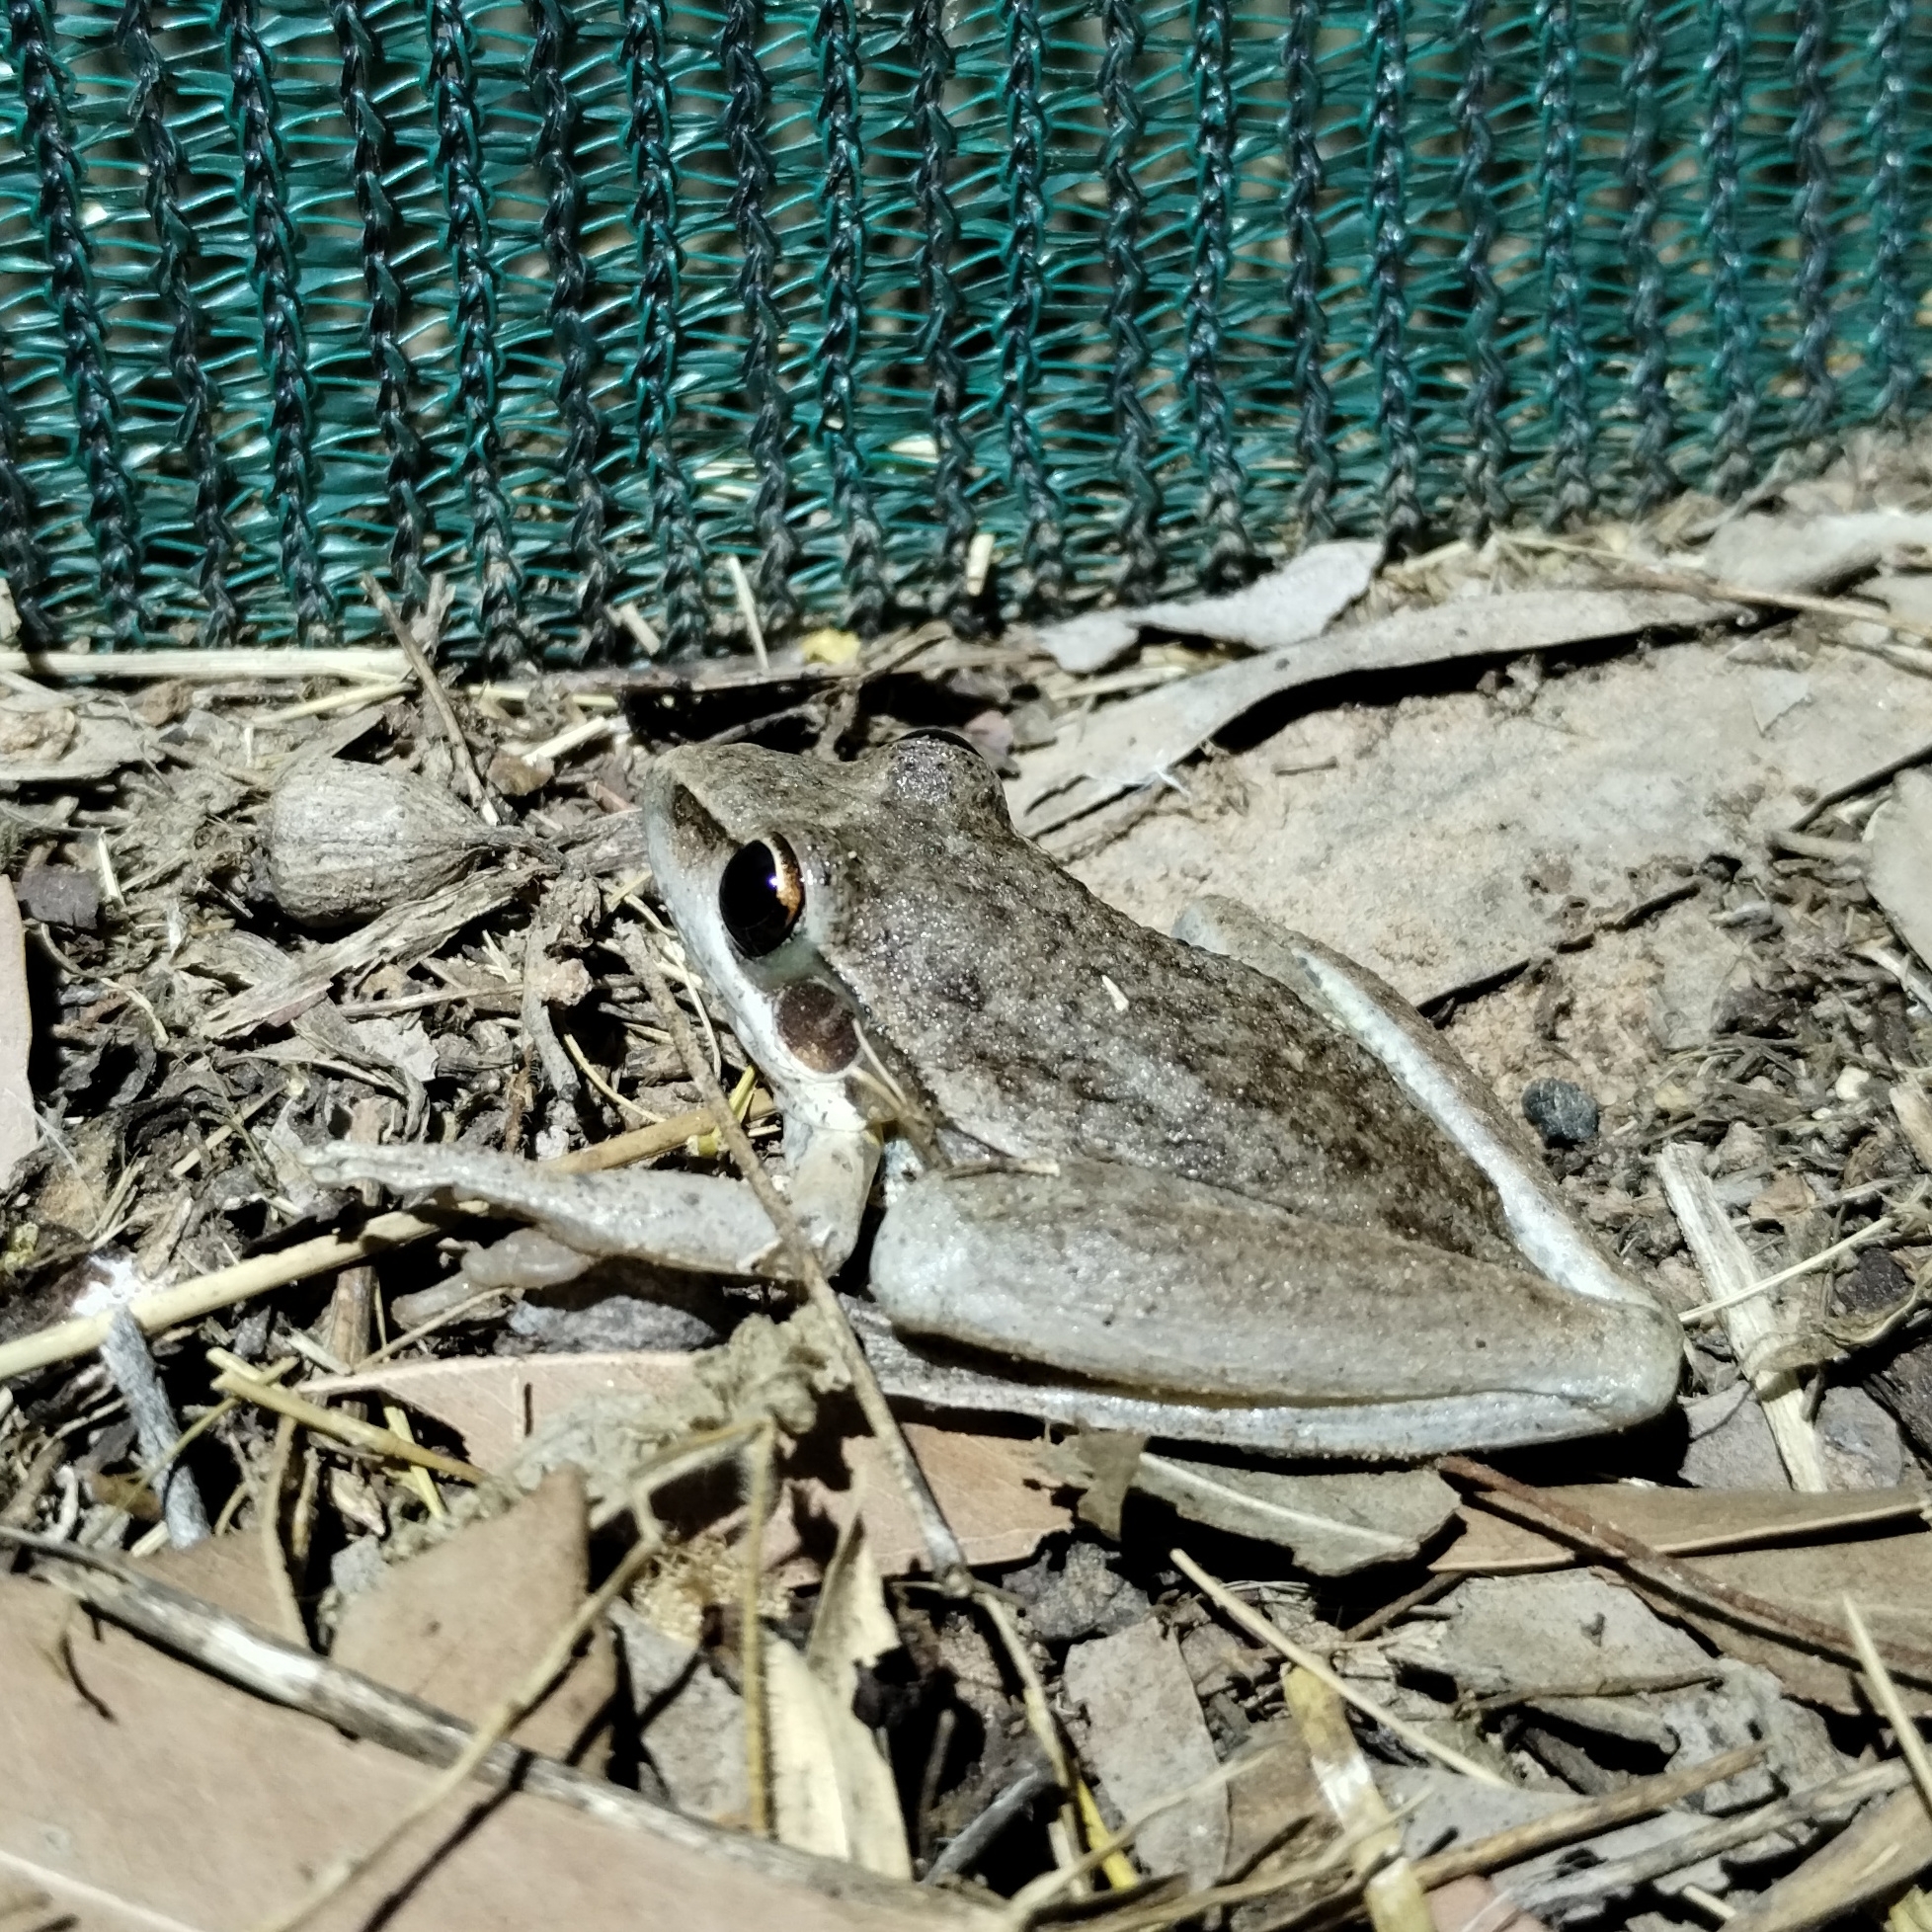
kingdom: Animalia
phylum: Chordata
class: Amphibia
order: Anura
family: Pelodryadidae
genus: Litoria
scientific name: Litoria watjulumensis
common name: Wotjulum frog
